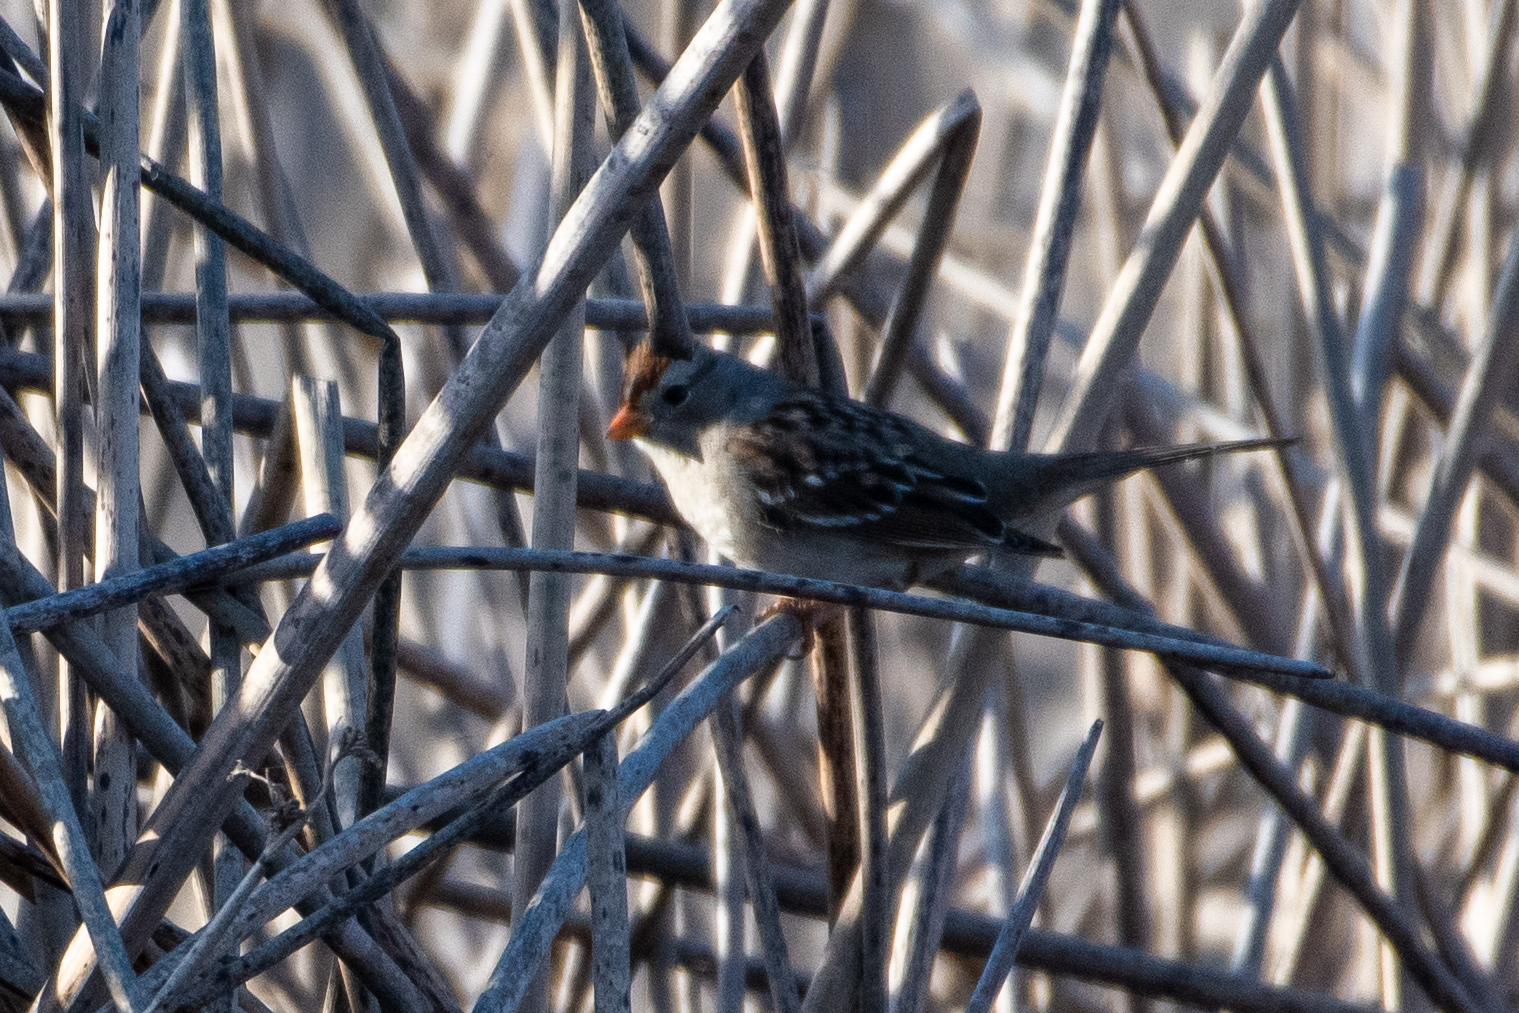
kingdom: Animalia
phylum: Chordata
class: Aves
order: Passeriformes
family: Passerellidae
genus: Zonotrichia
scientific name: Zonotrichia leucophrys
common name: White-crowned sparrow
